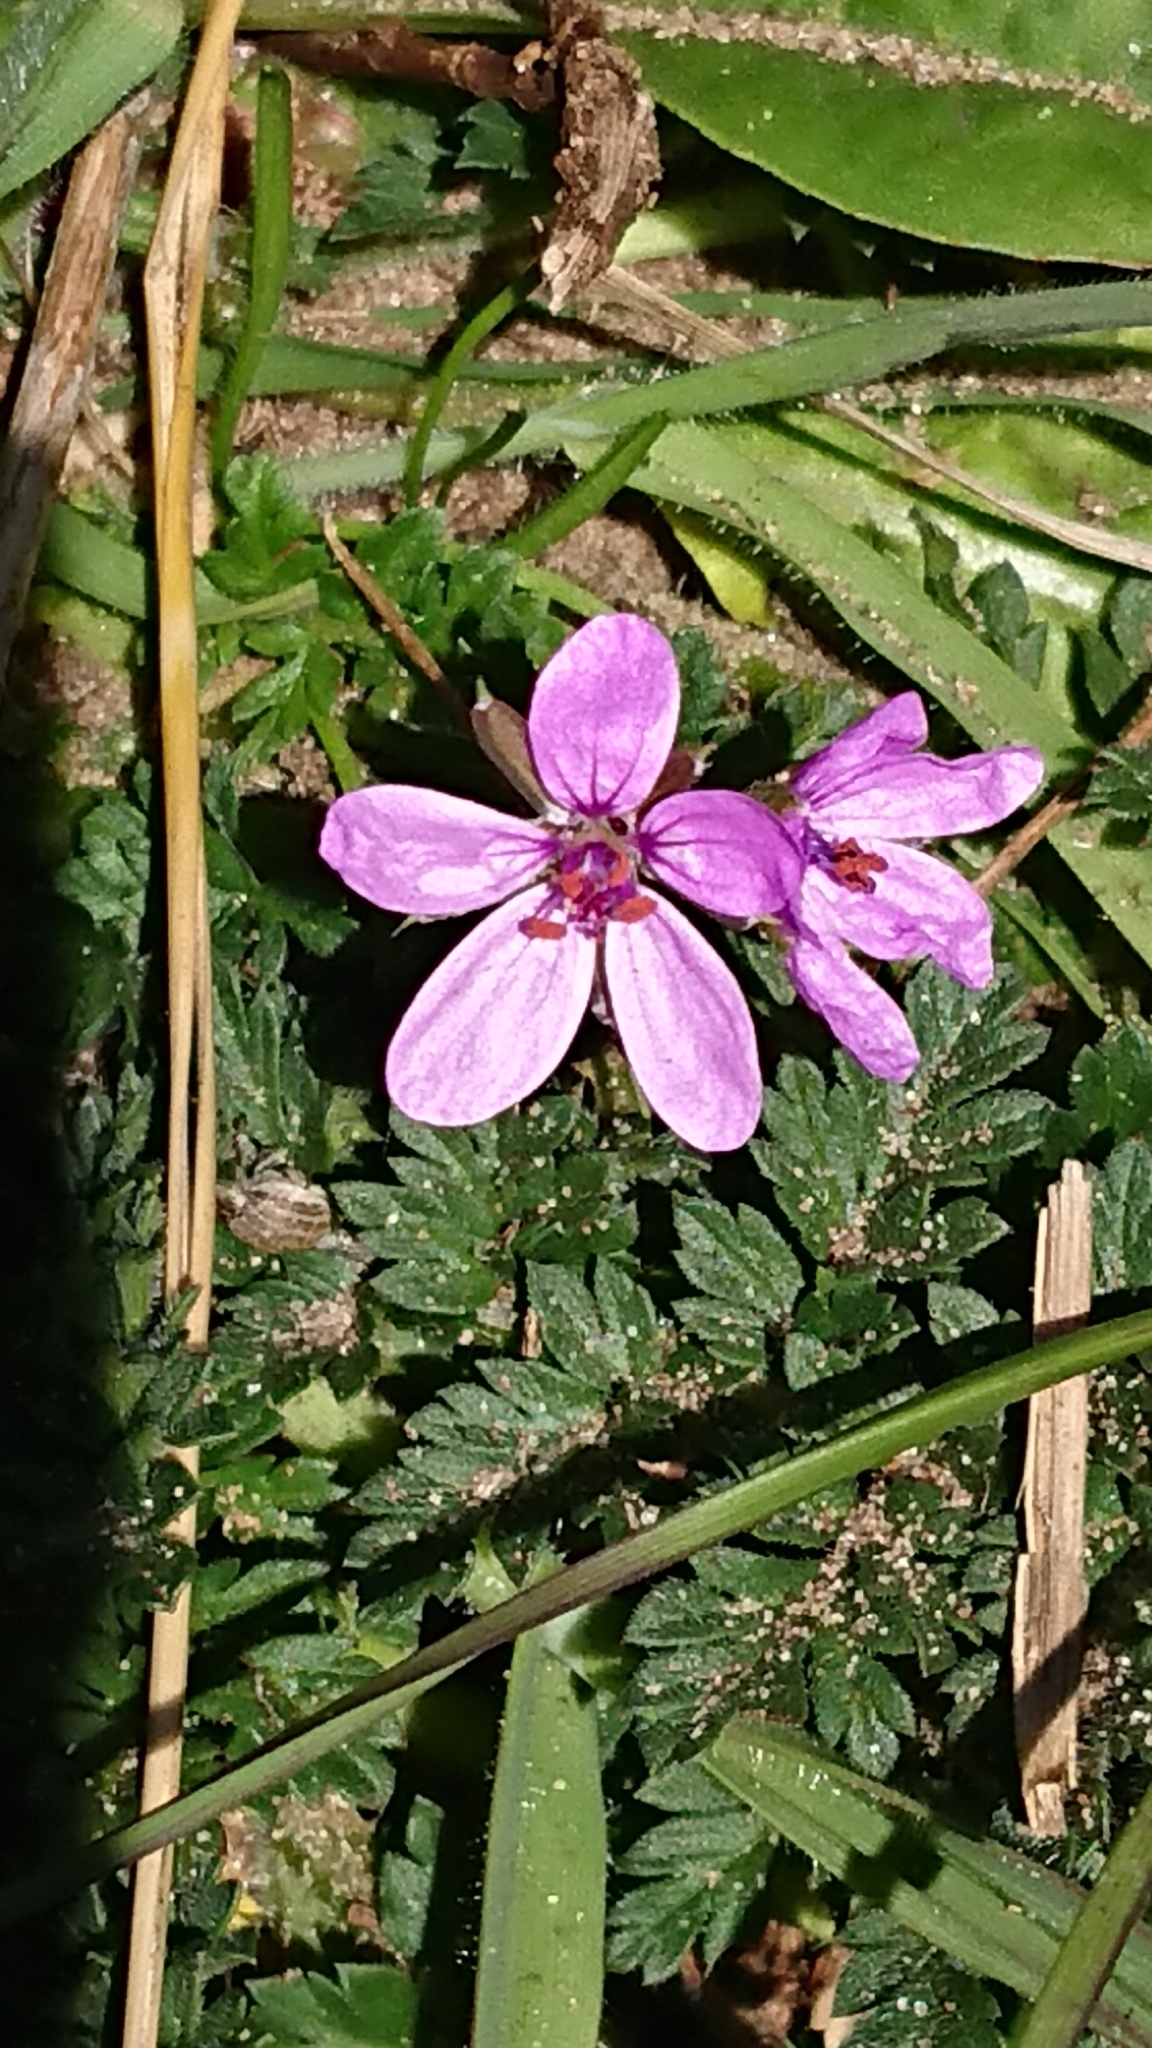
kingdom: Plantae
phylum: Tracheophyta
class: Magnoliopsida
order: Geraniales
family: Geraniaceae
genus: Erodium
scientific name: Erodium cicutarium
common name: Common stork's-bill
